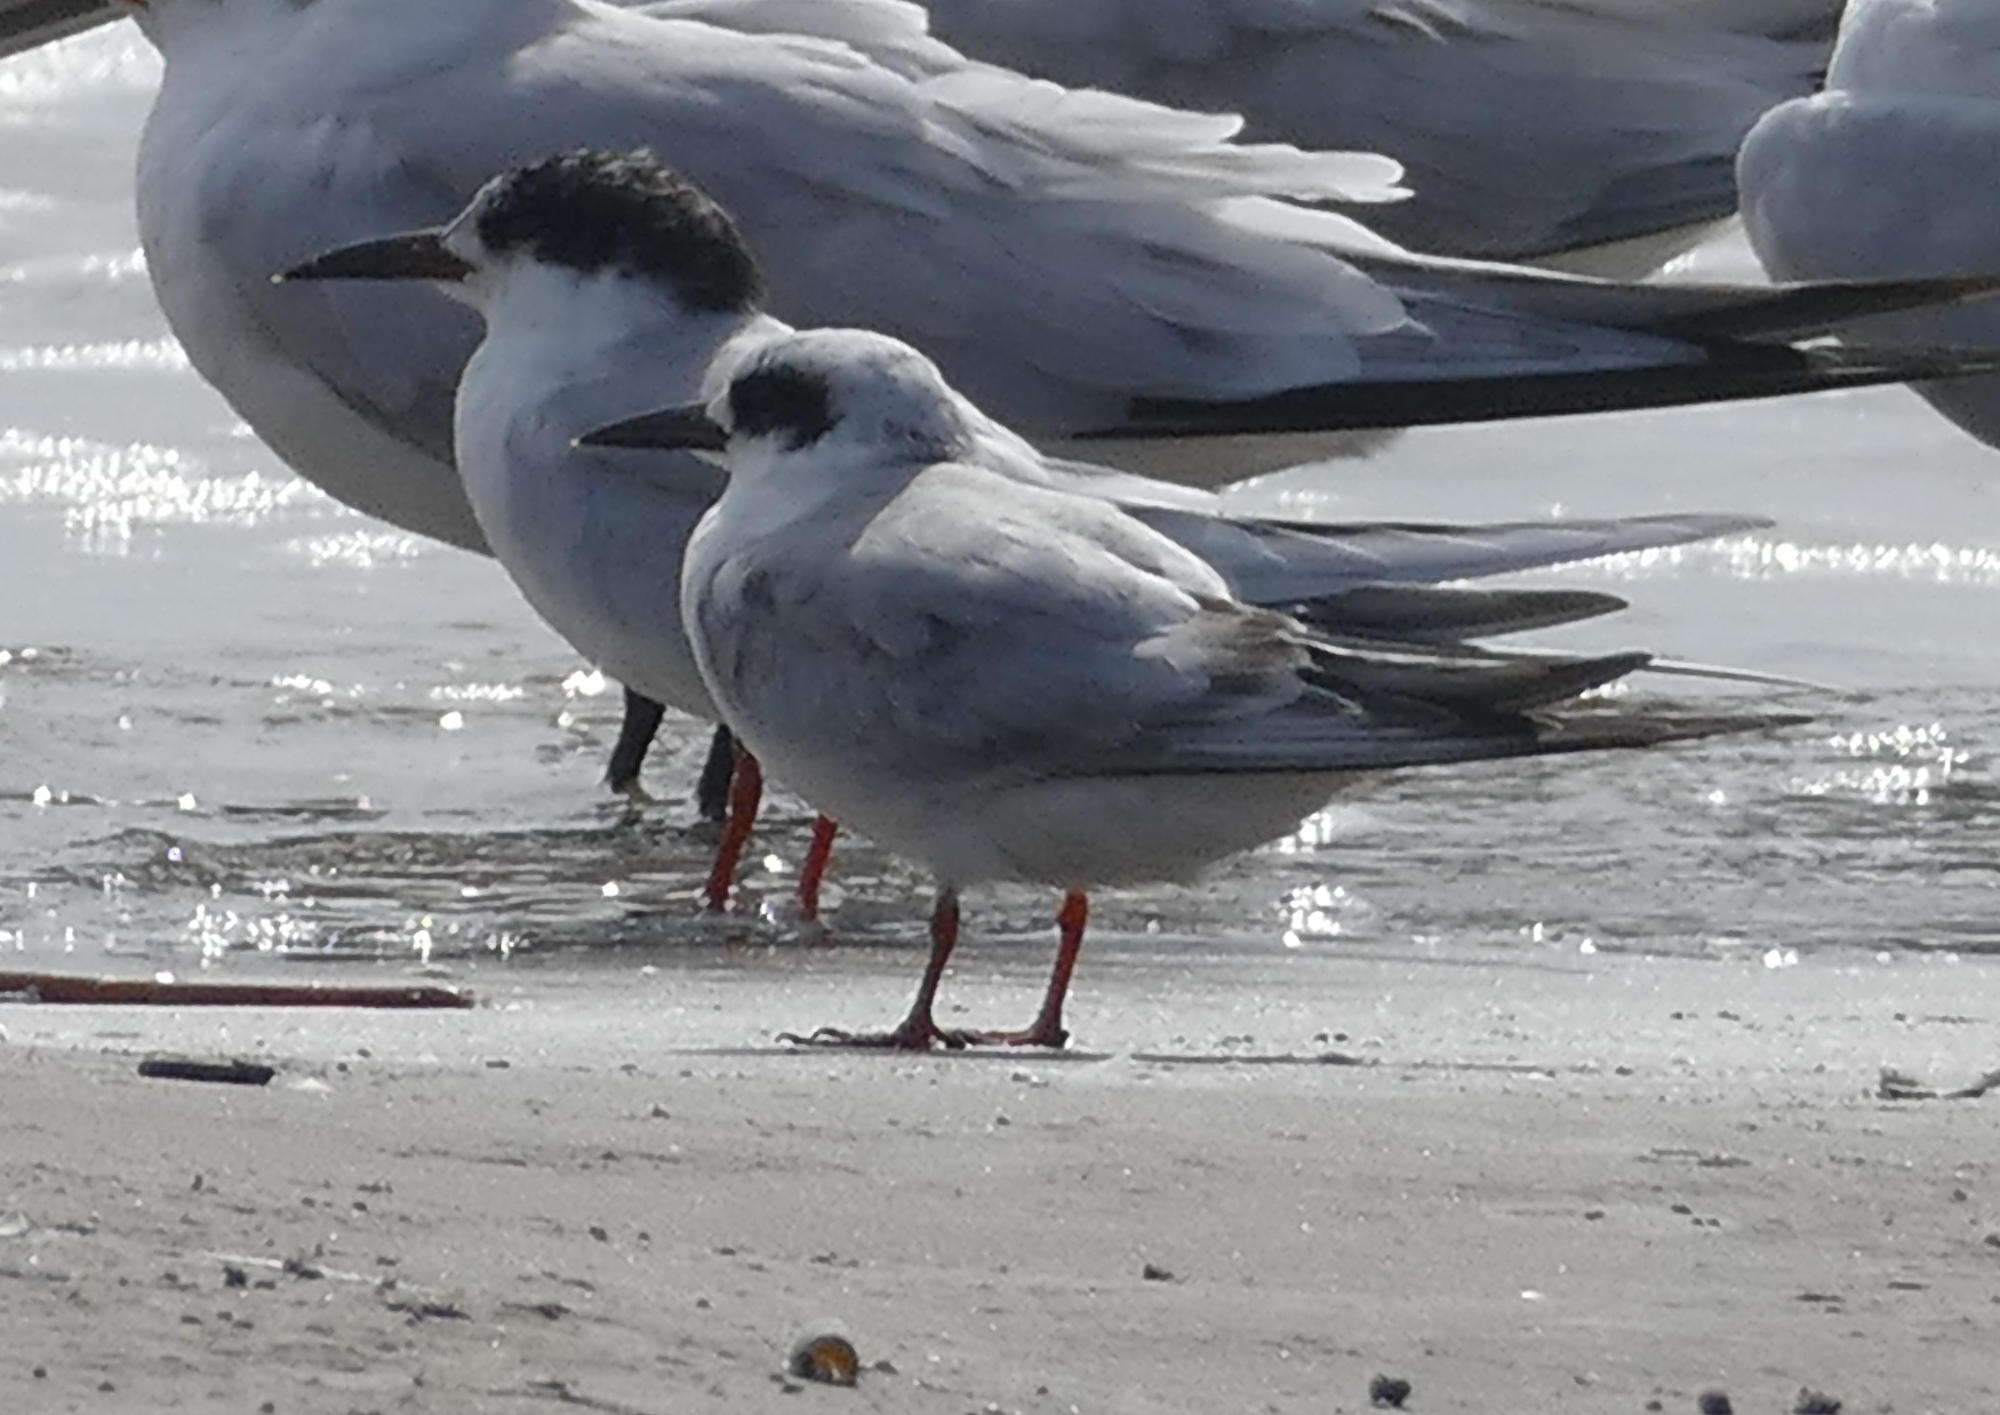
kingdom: Animalia
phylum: Chordata
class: Aves
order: Charadriiformes
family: Laridae
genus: Sterna
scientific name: Sterna forsteri
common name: Forster's tern
